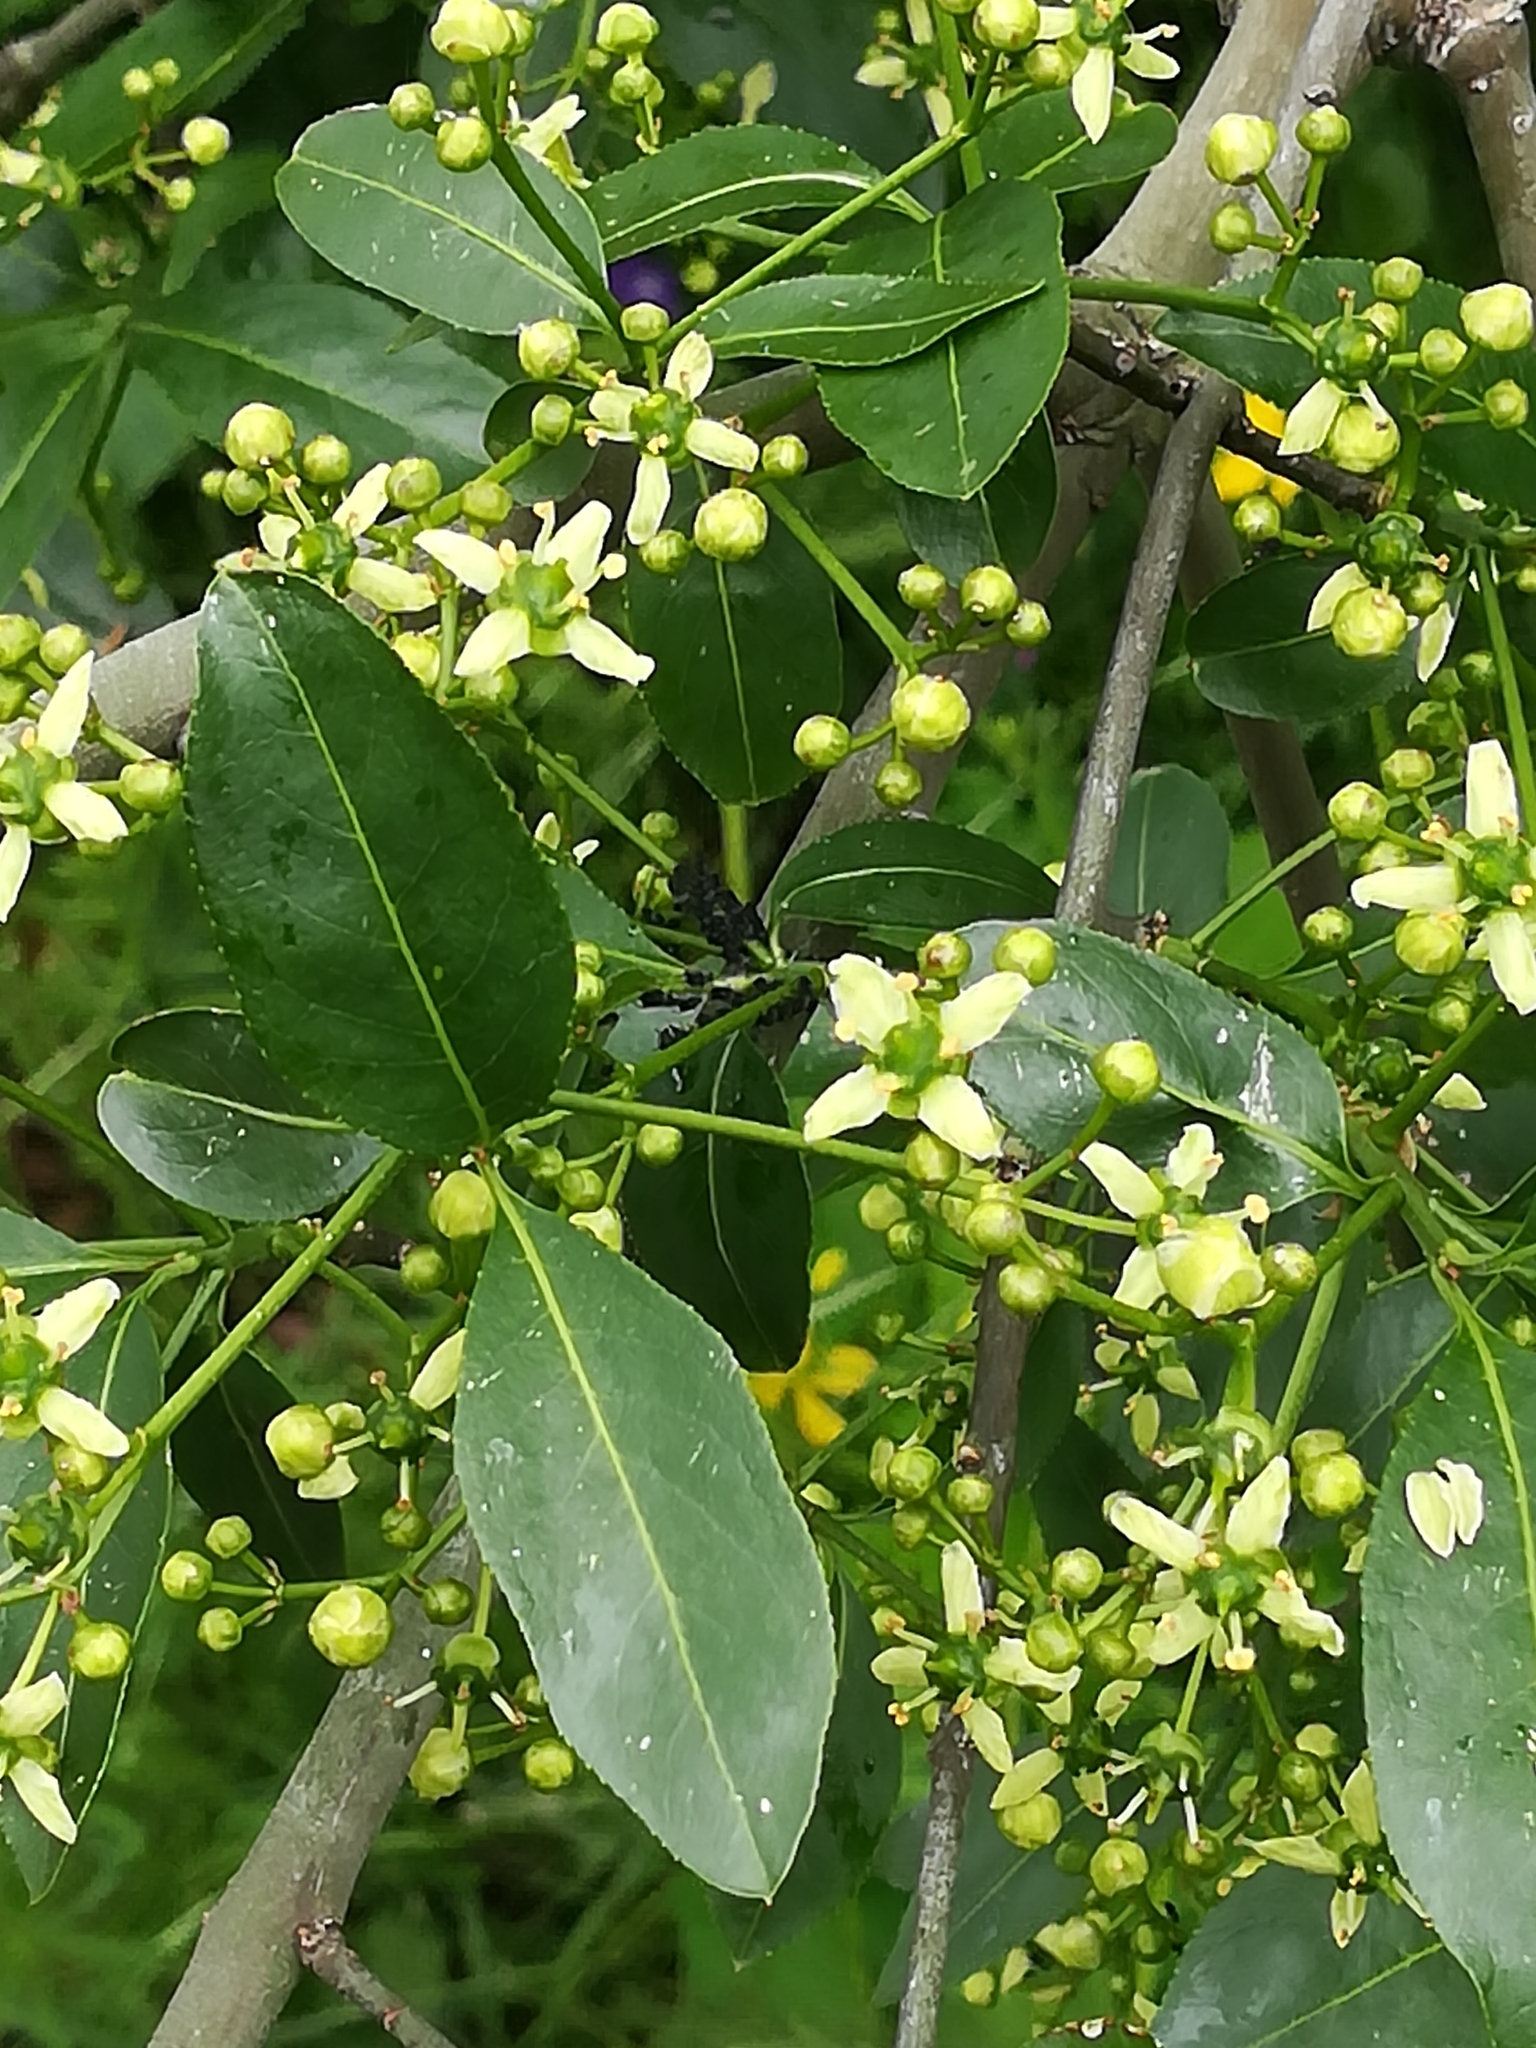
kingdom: Plantae
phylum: Tracheophyta
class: Magnoliopsida
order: Celastrales
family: Celastraceae
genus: Euonymus
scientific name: Euonymus europaeus
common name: Spindle
